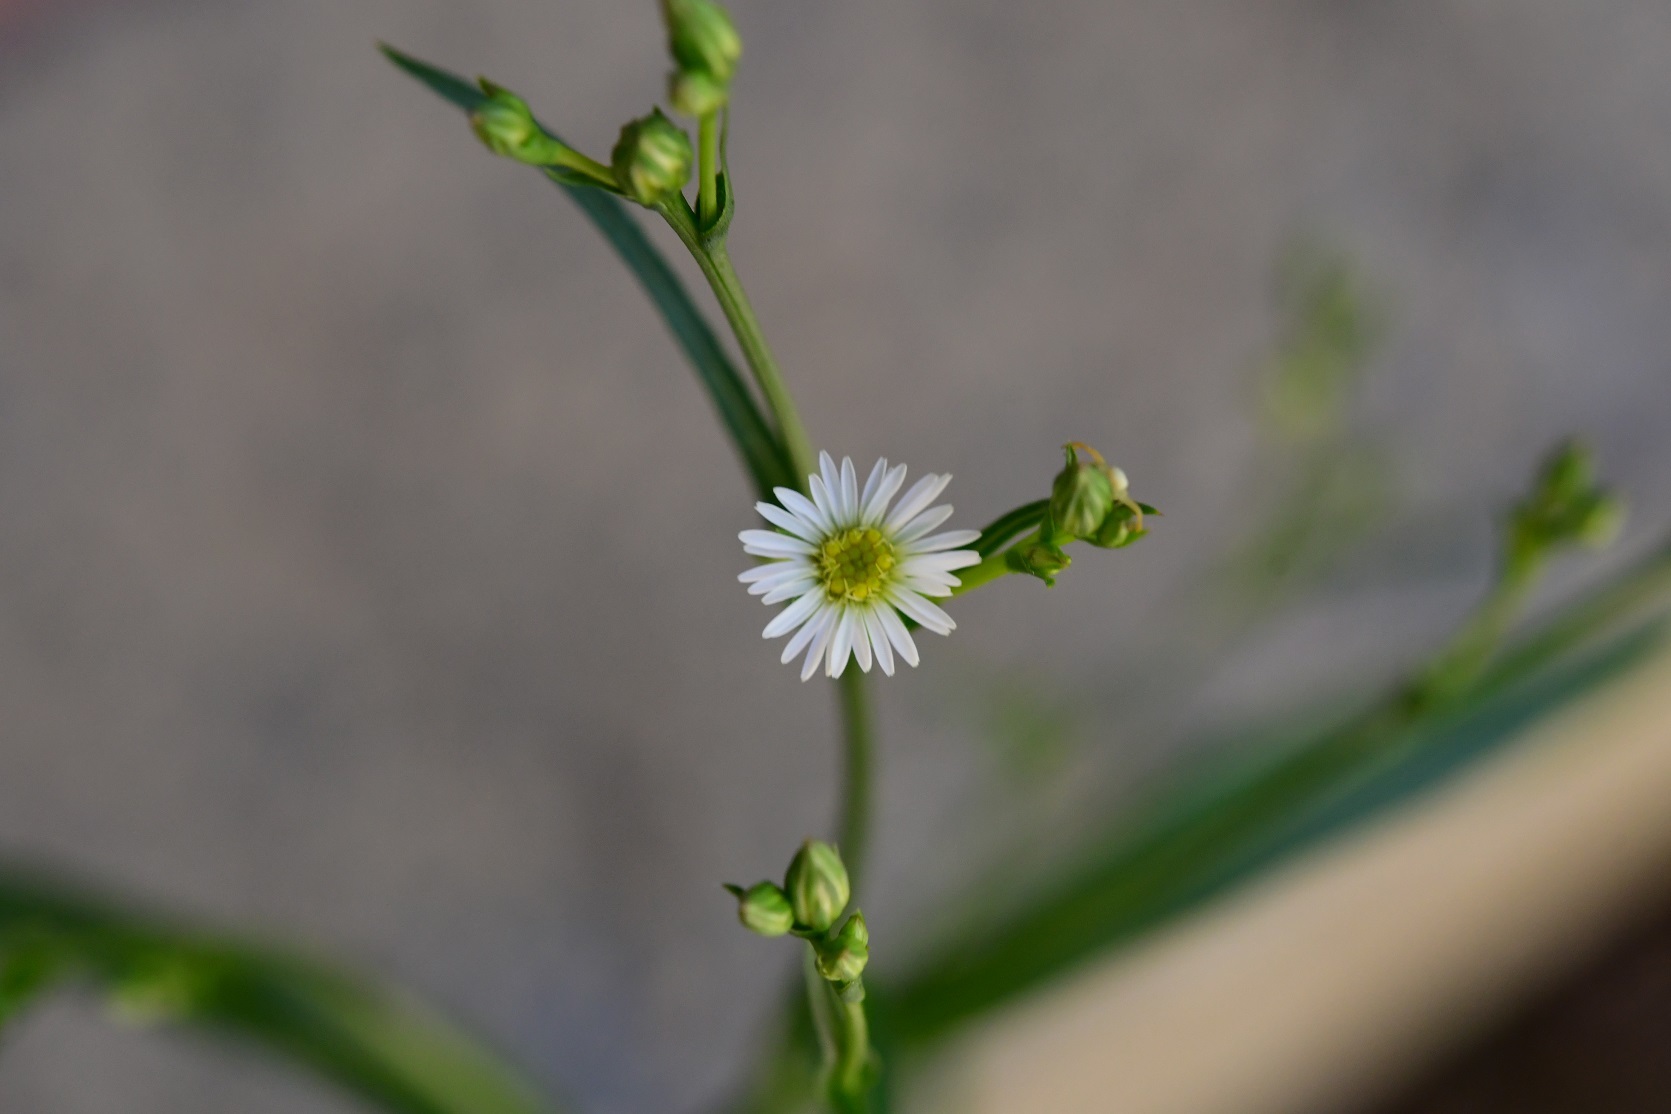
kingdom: Plantae
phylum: Tracheophyta
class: Magnoliopsida
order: Asterales
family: Asteraceae
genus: Symphyotrichum
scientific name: Symphyotrichum subulatum
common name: Annual saltmarsh aster
